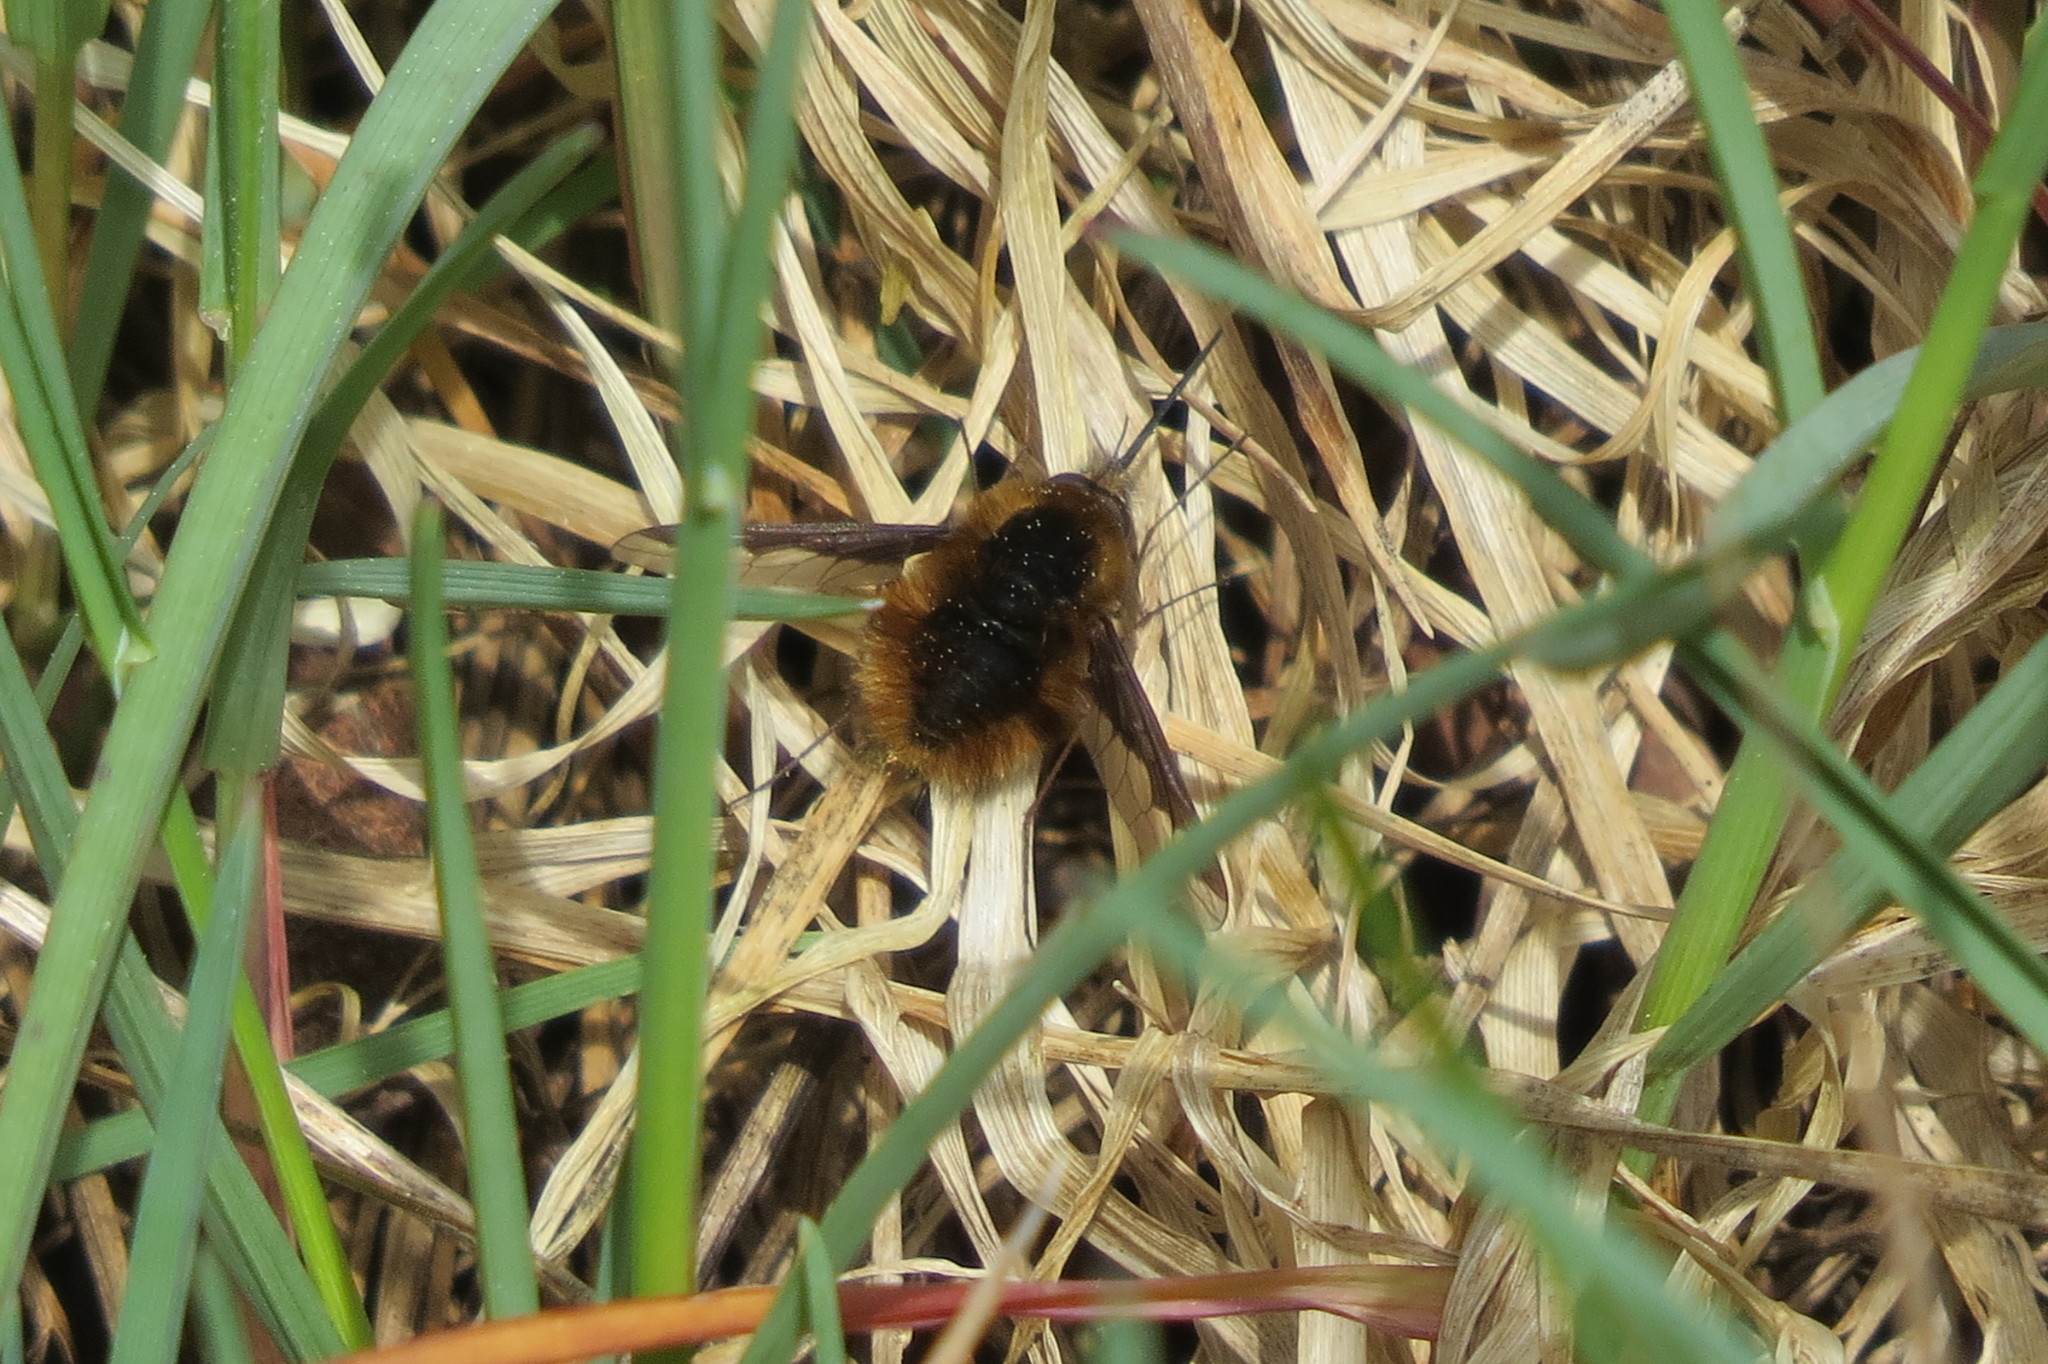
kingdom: Animalia
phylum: Arthropoda
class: Insecta
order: Diptera
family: Bombyliidae
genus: Bombylius
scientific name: Bombylius major
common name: Bee fly
